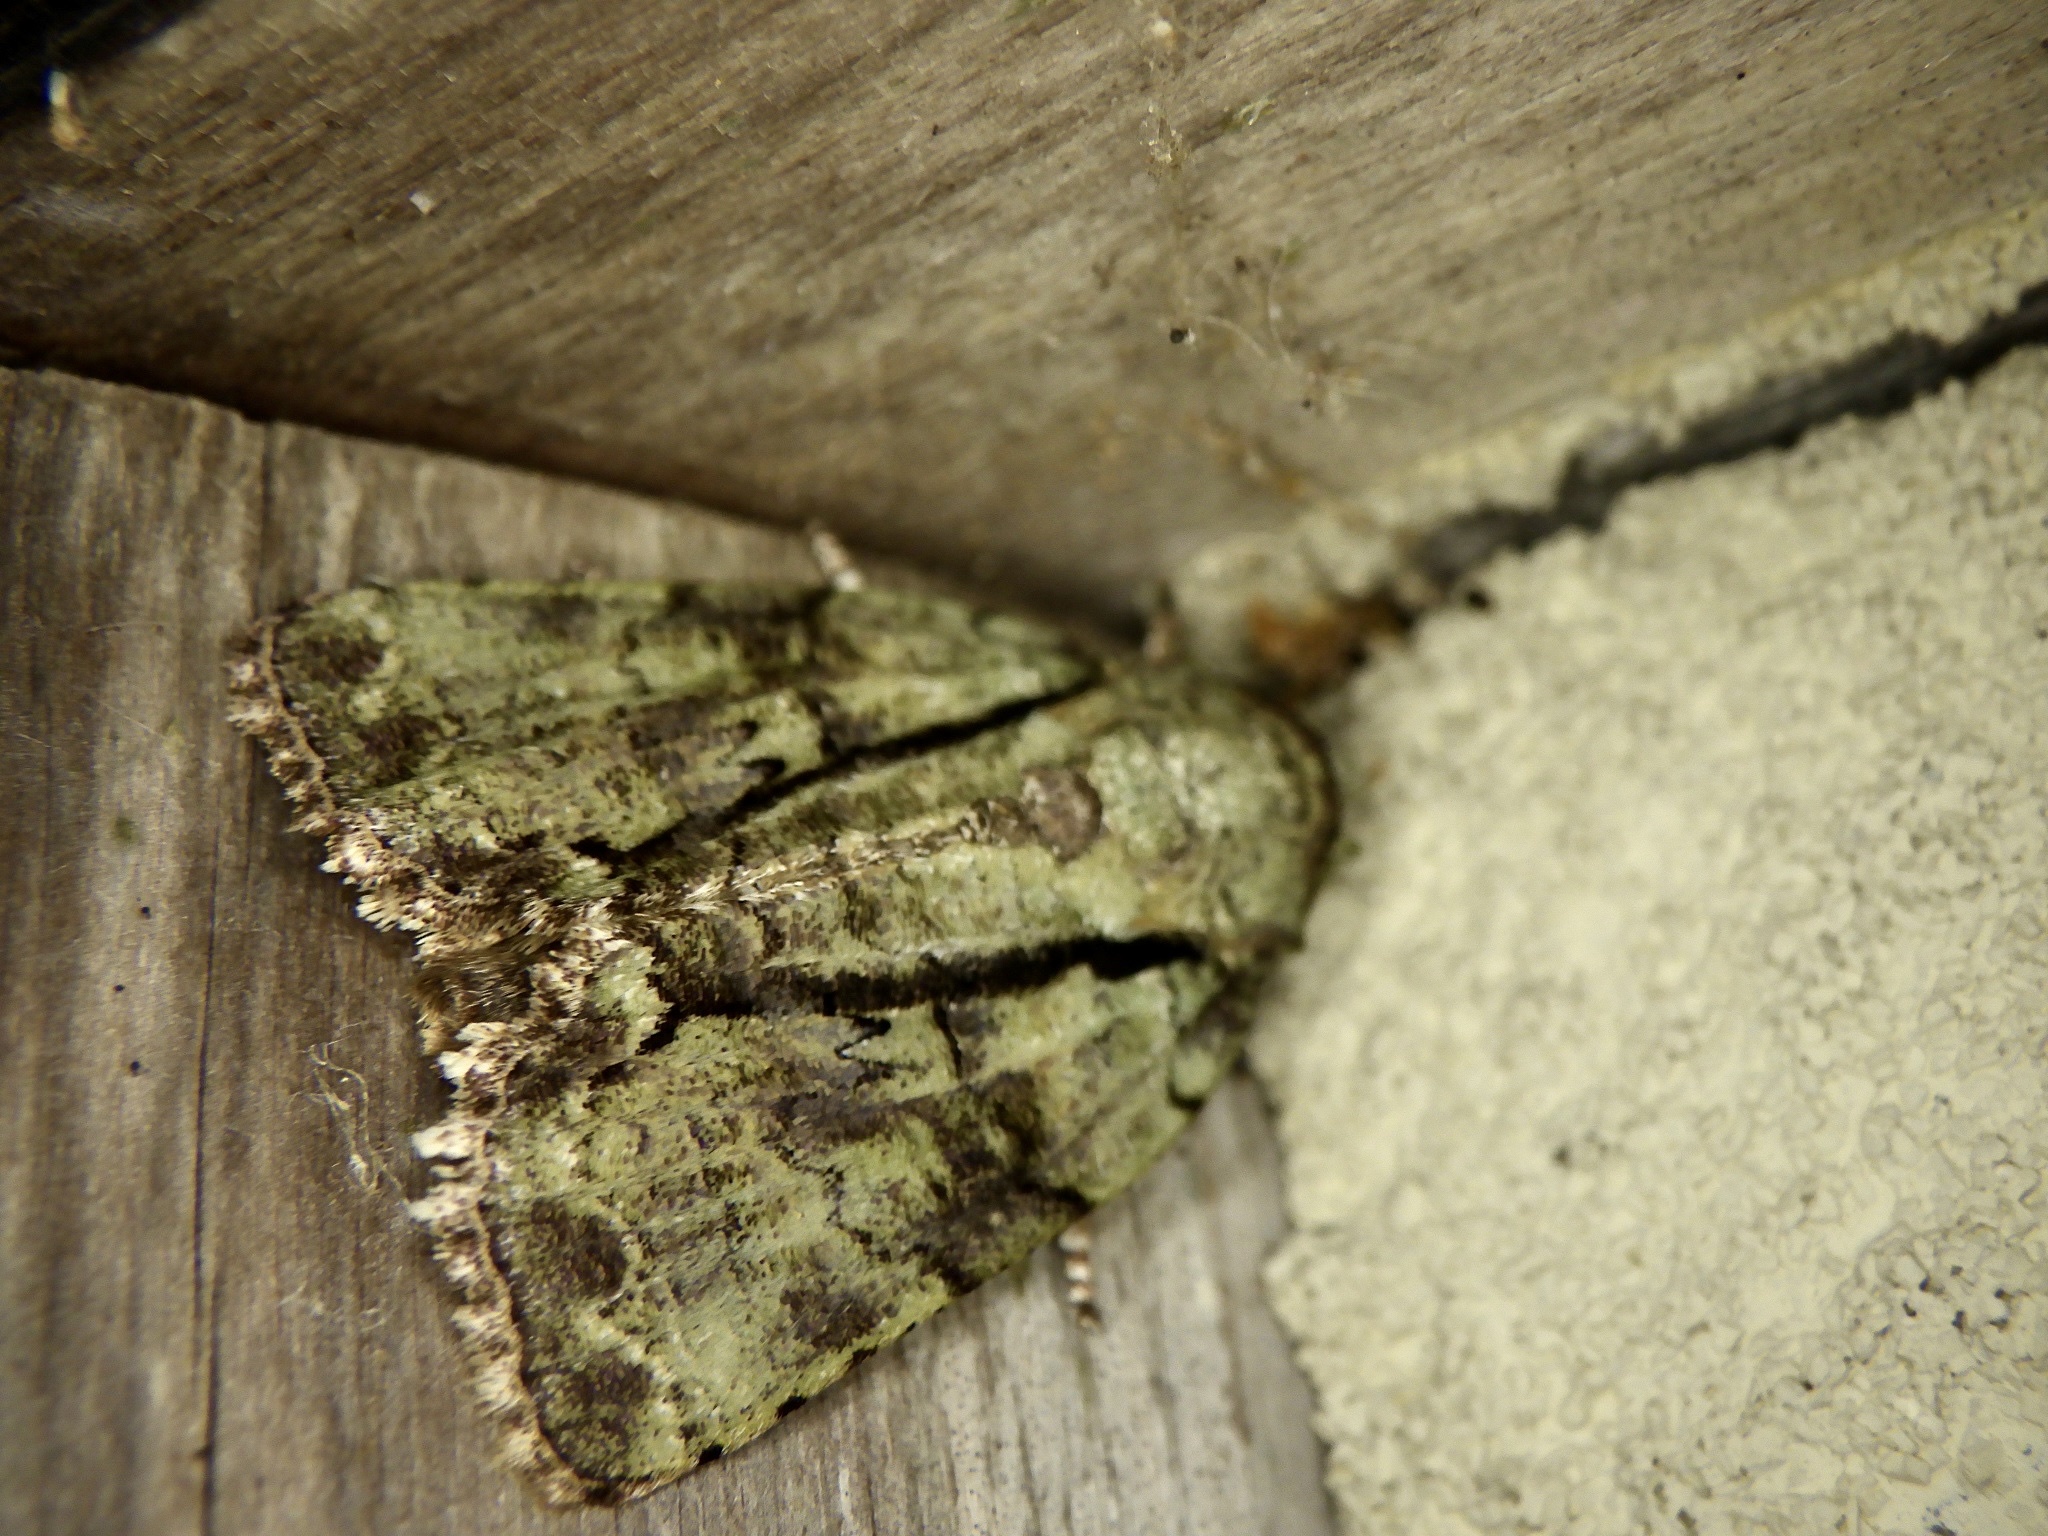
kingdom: Animalia
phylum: Arthropoda
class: Insecta
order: Lepidoptera
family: Nolidae
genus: Blenina
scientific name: Blenina senex
